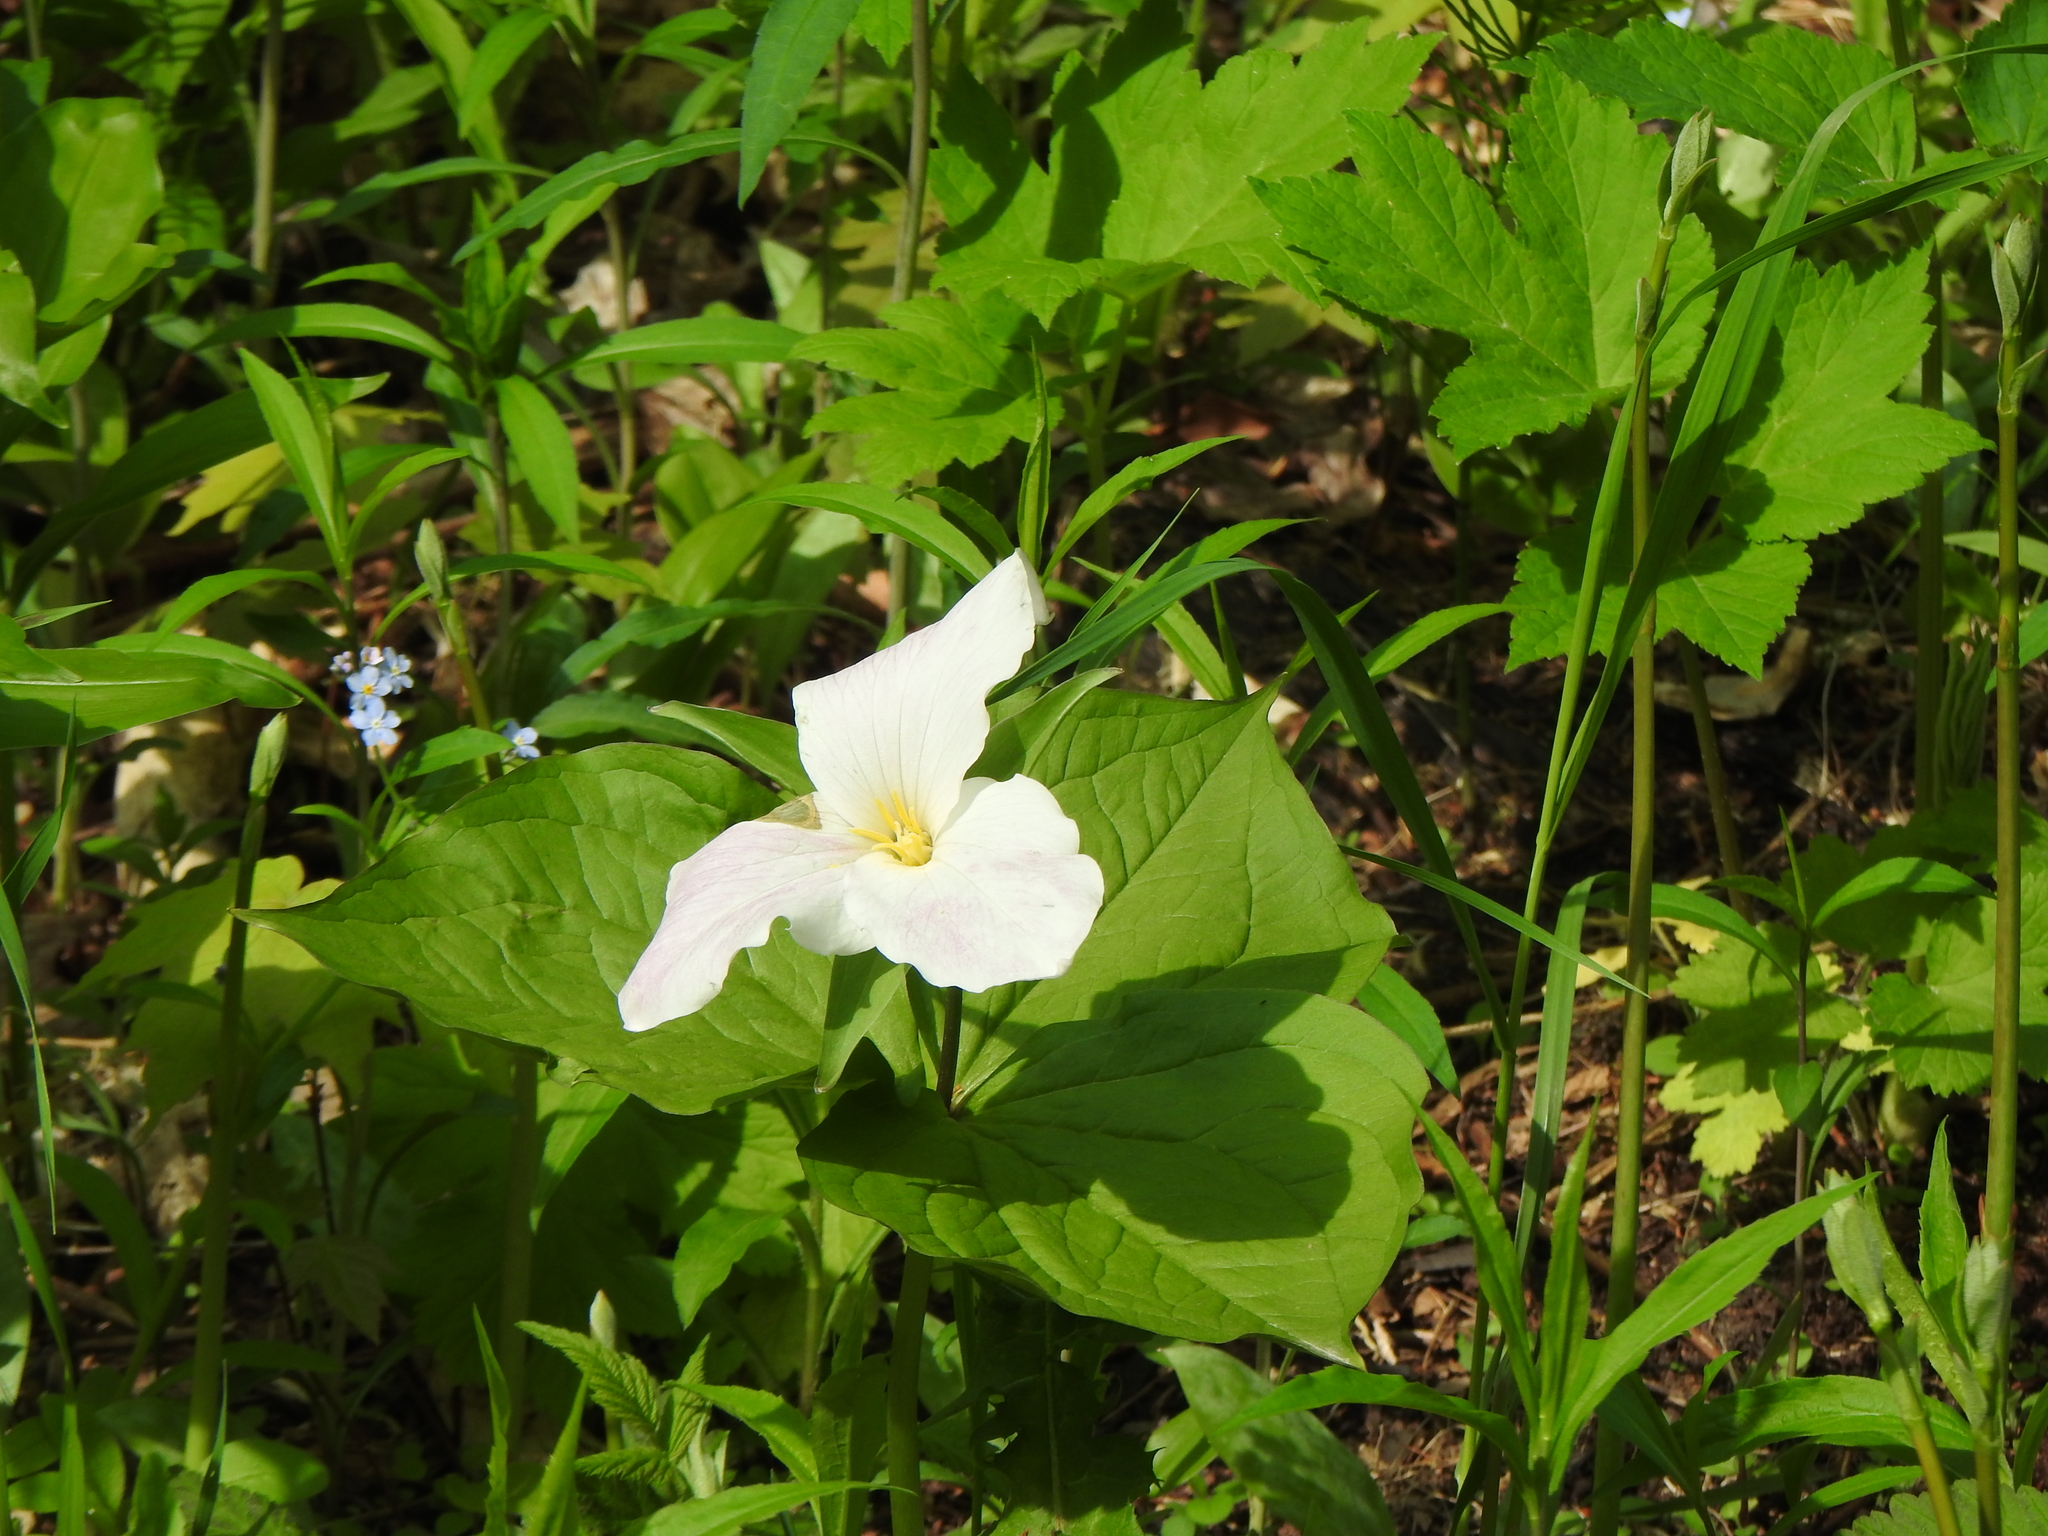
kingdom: Plantae
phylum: Tracheophyta
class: Liliopsida
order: Liliales
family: Melanthiaceae
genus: Trillium
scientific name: Trillium grandiflorum
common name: Great white trillium
